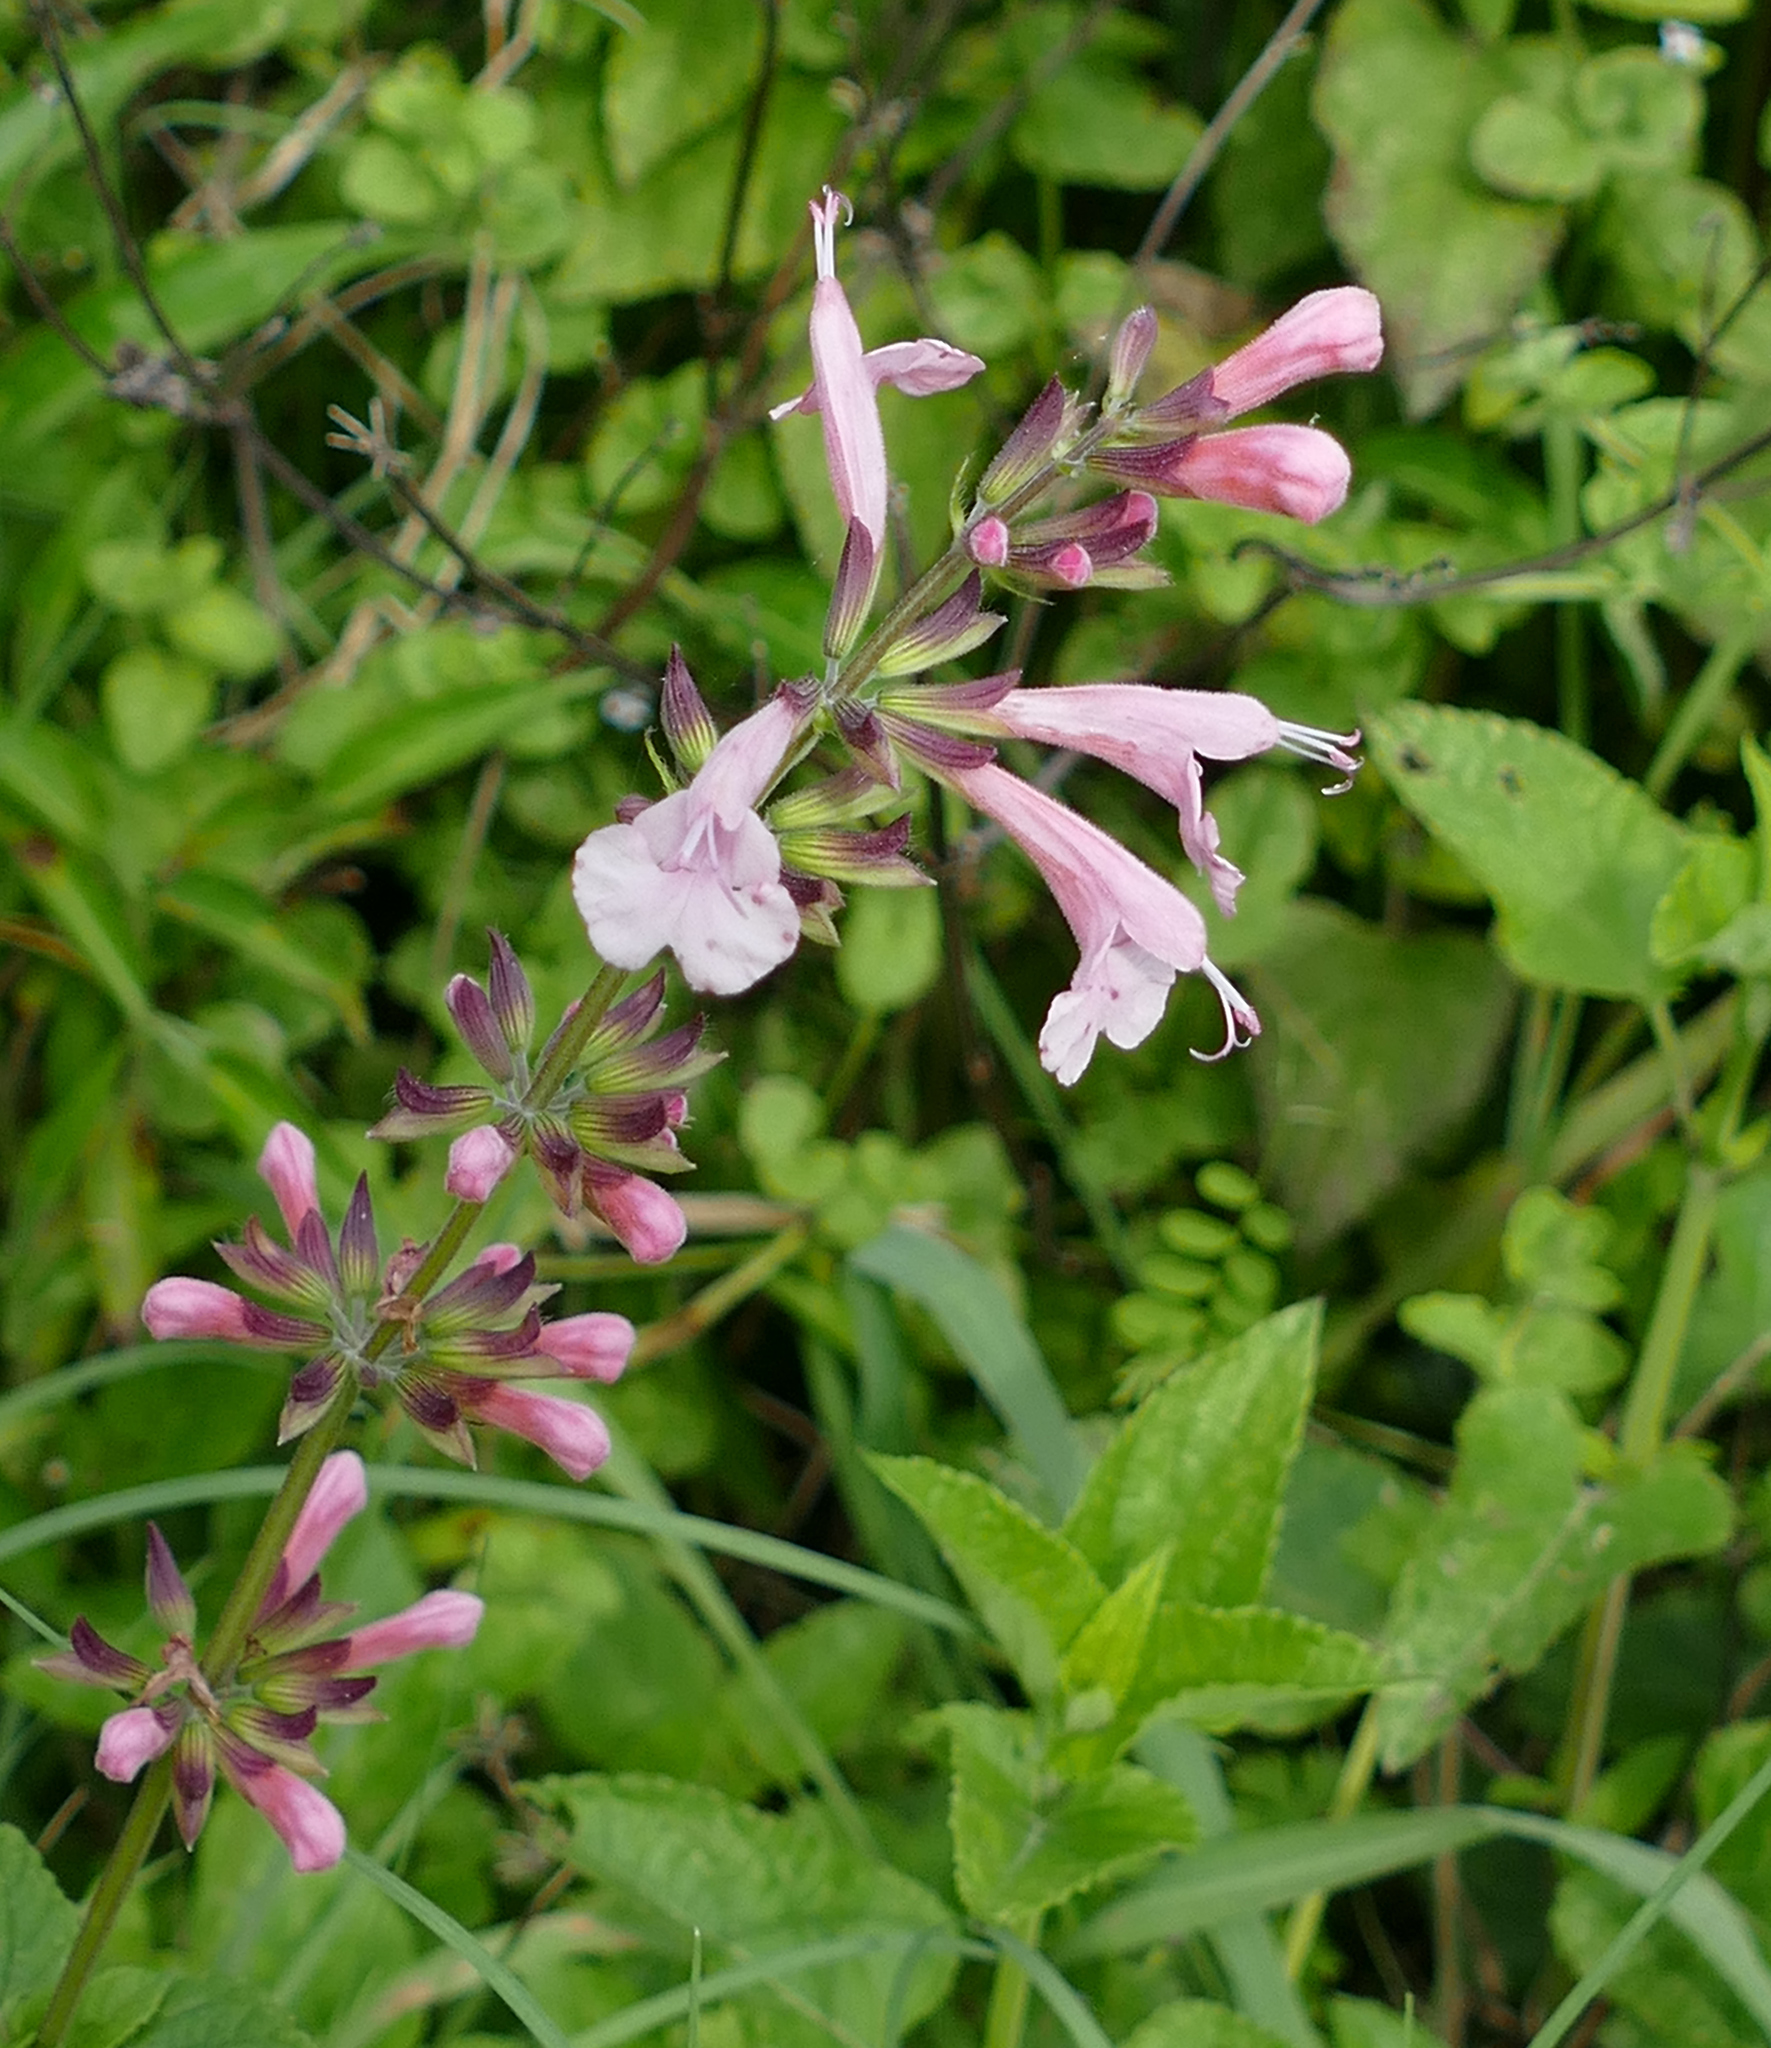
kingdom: Plantae
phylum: Tracheophyta
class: Magnoliopsida
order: Lamiales
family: Lamiaceae
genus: Salvia
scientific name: Salvia coccinea
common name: Blood sage
